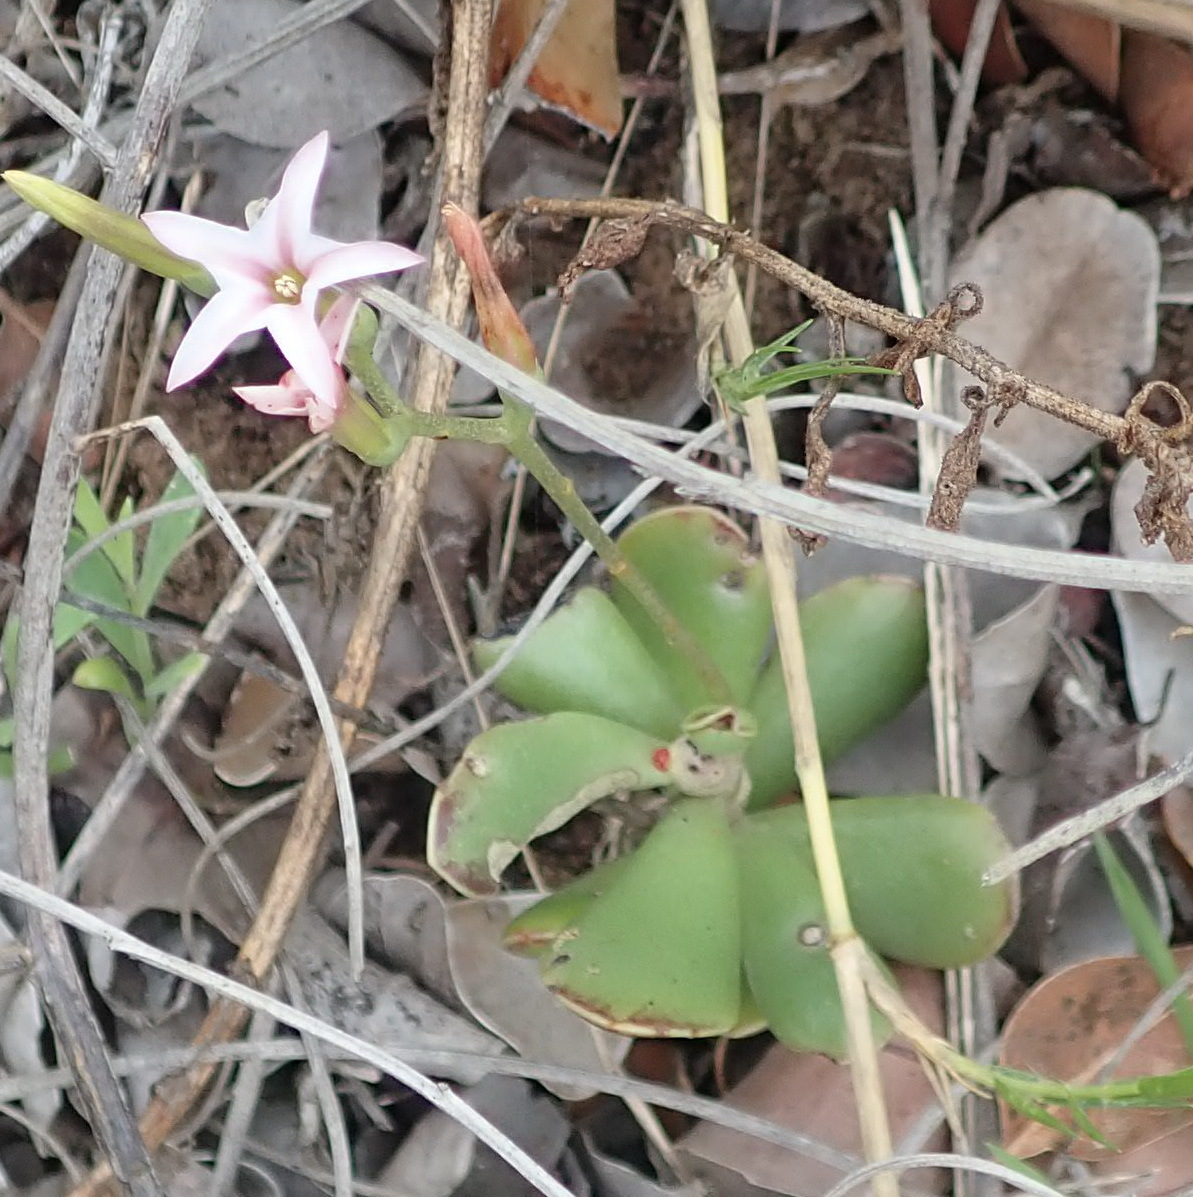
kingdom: Plantae
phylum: Tracheophyta
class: Magnoliopsida
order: Saxifragales
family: Crassulaceae
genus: Adromischus
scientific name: Adromischus caryophyllaceus
